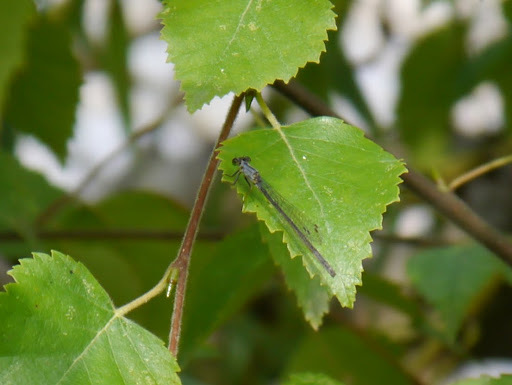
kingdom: Animalia
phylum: Arthropoda
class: Insecta
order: Odonata
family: Coenagrionidae
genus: Ischnura
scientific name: Ischnura cervula
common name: Pacific forktail
